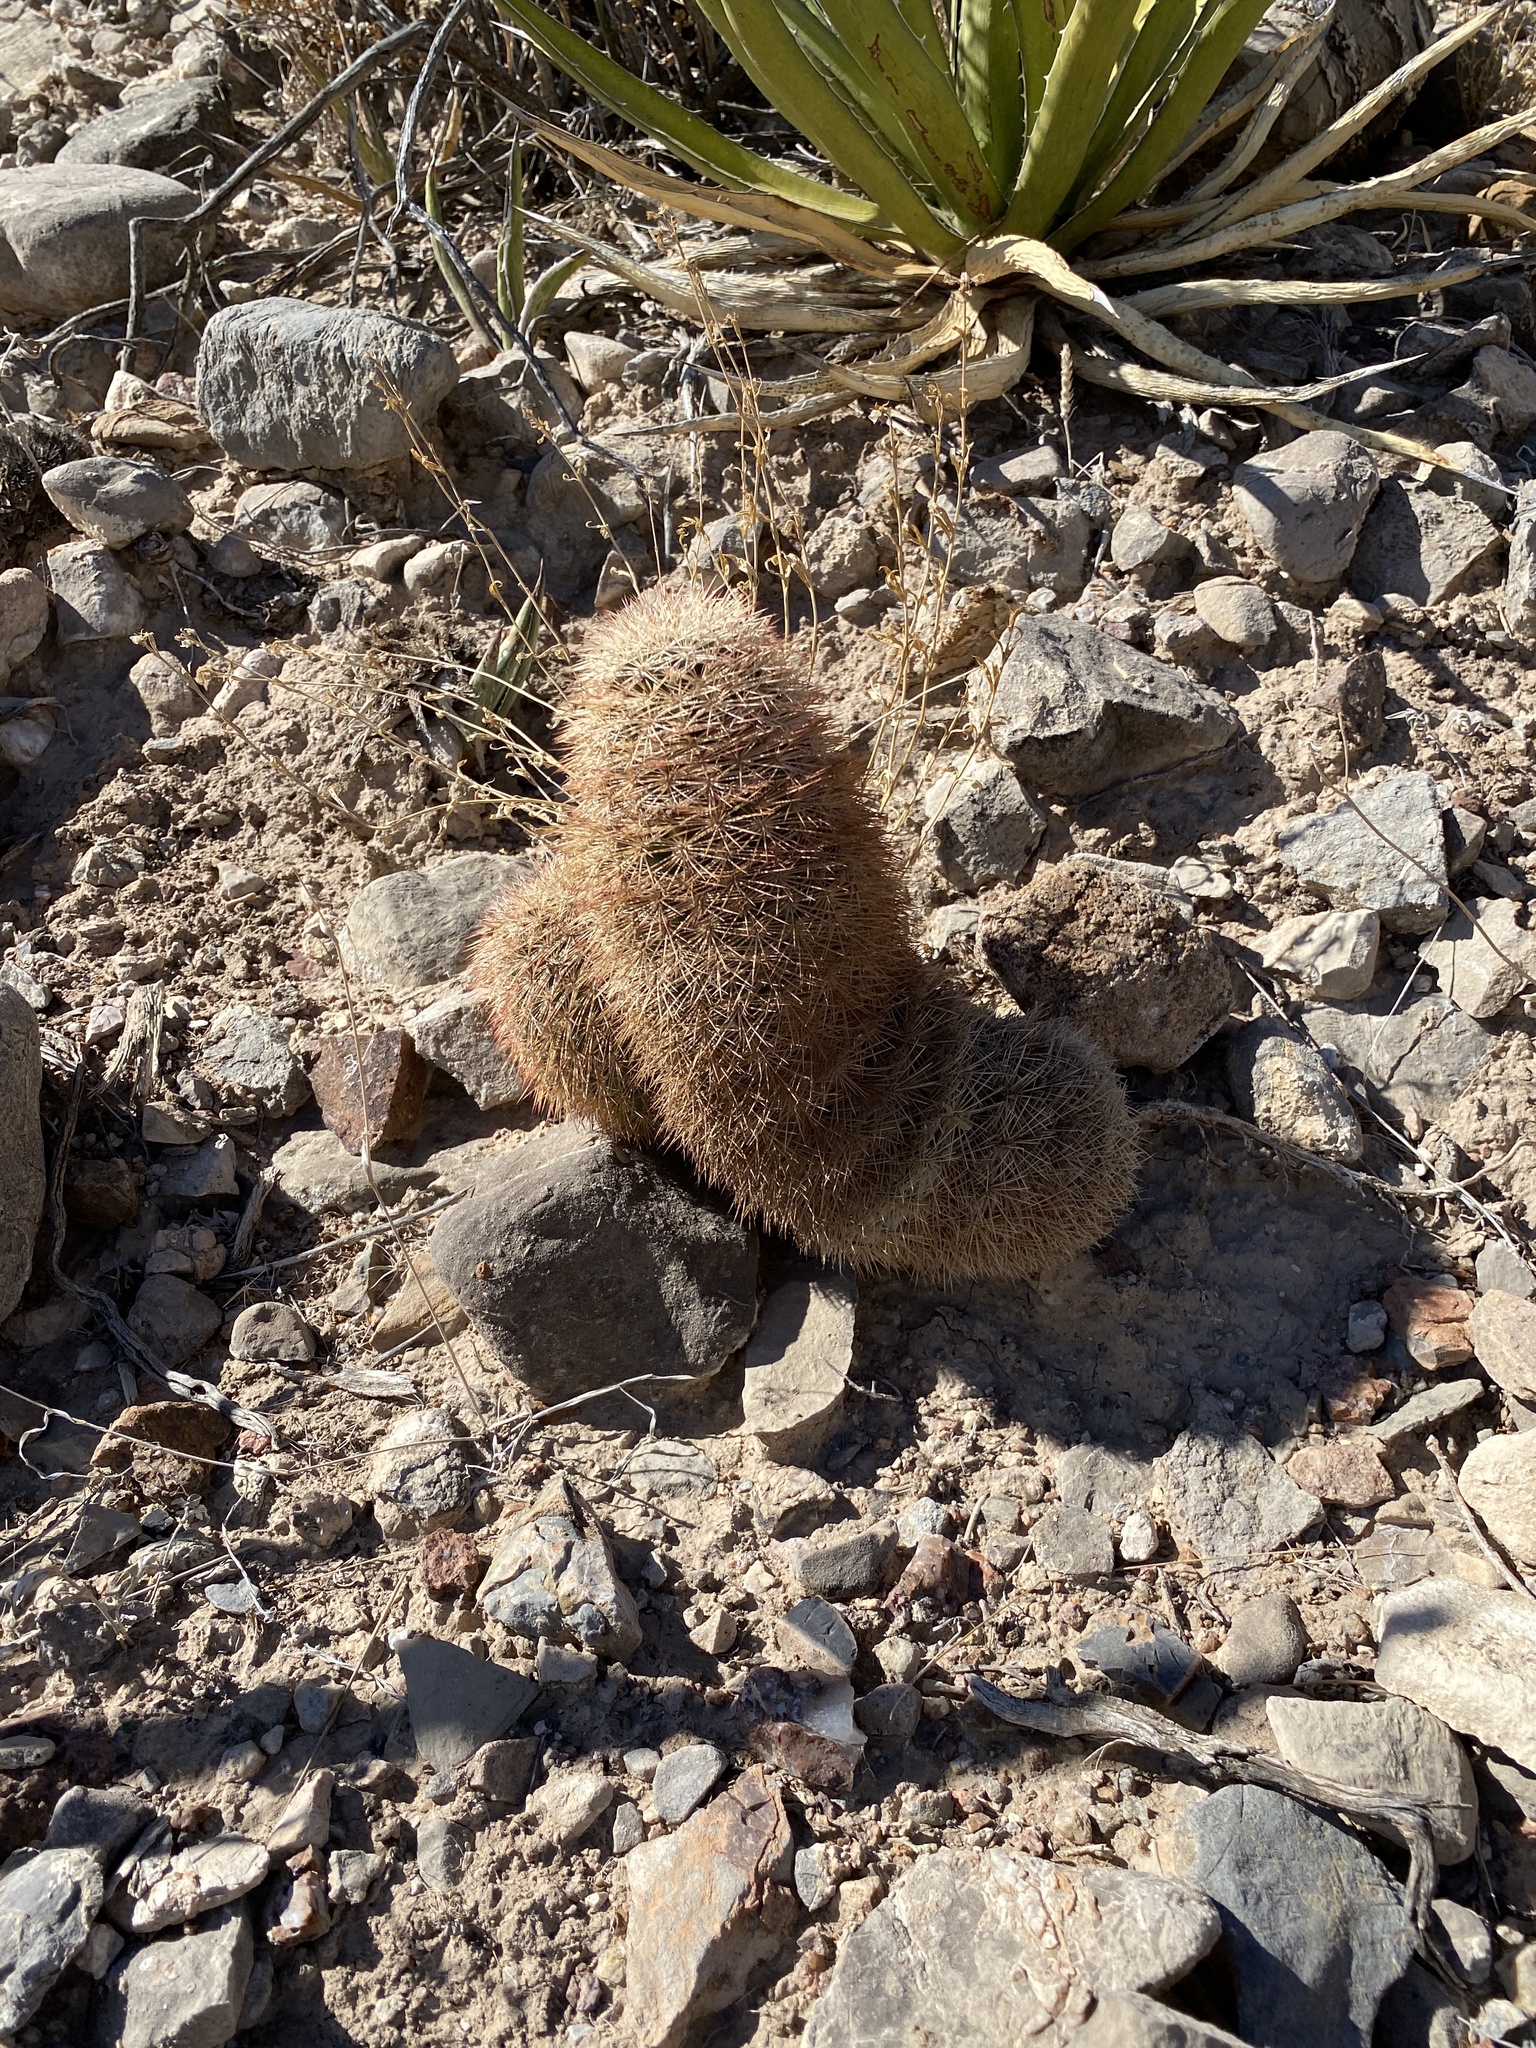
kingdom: Plantae
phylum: Tracheophyta
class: Magnoliopsida
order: Caryophyllales
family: Cactaceae
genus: Echinocereus
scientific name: Echinocereus dasyacanthus
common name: Spiny hedgehog cactus
